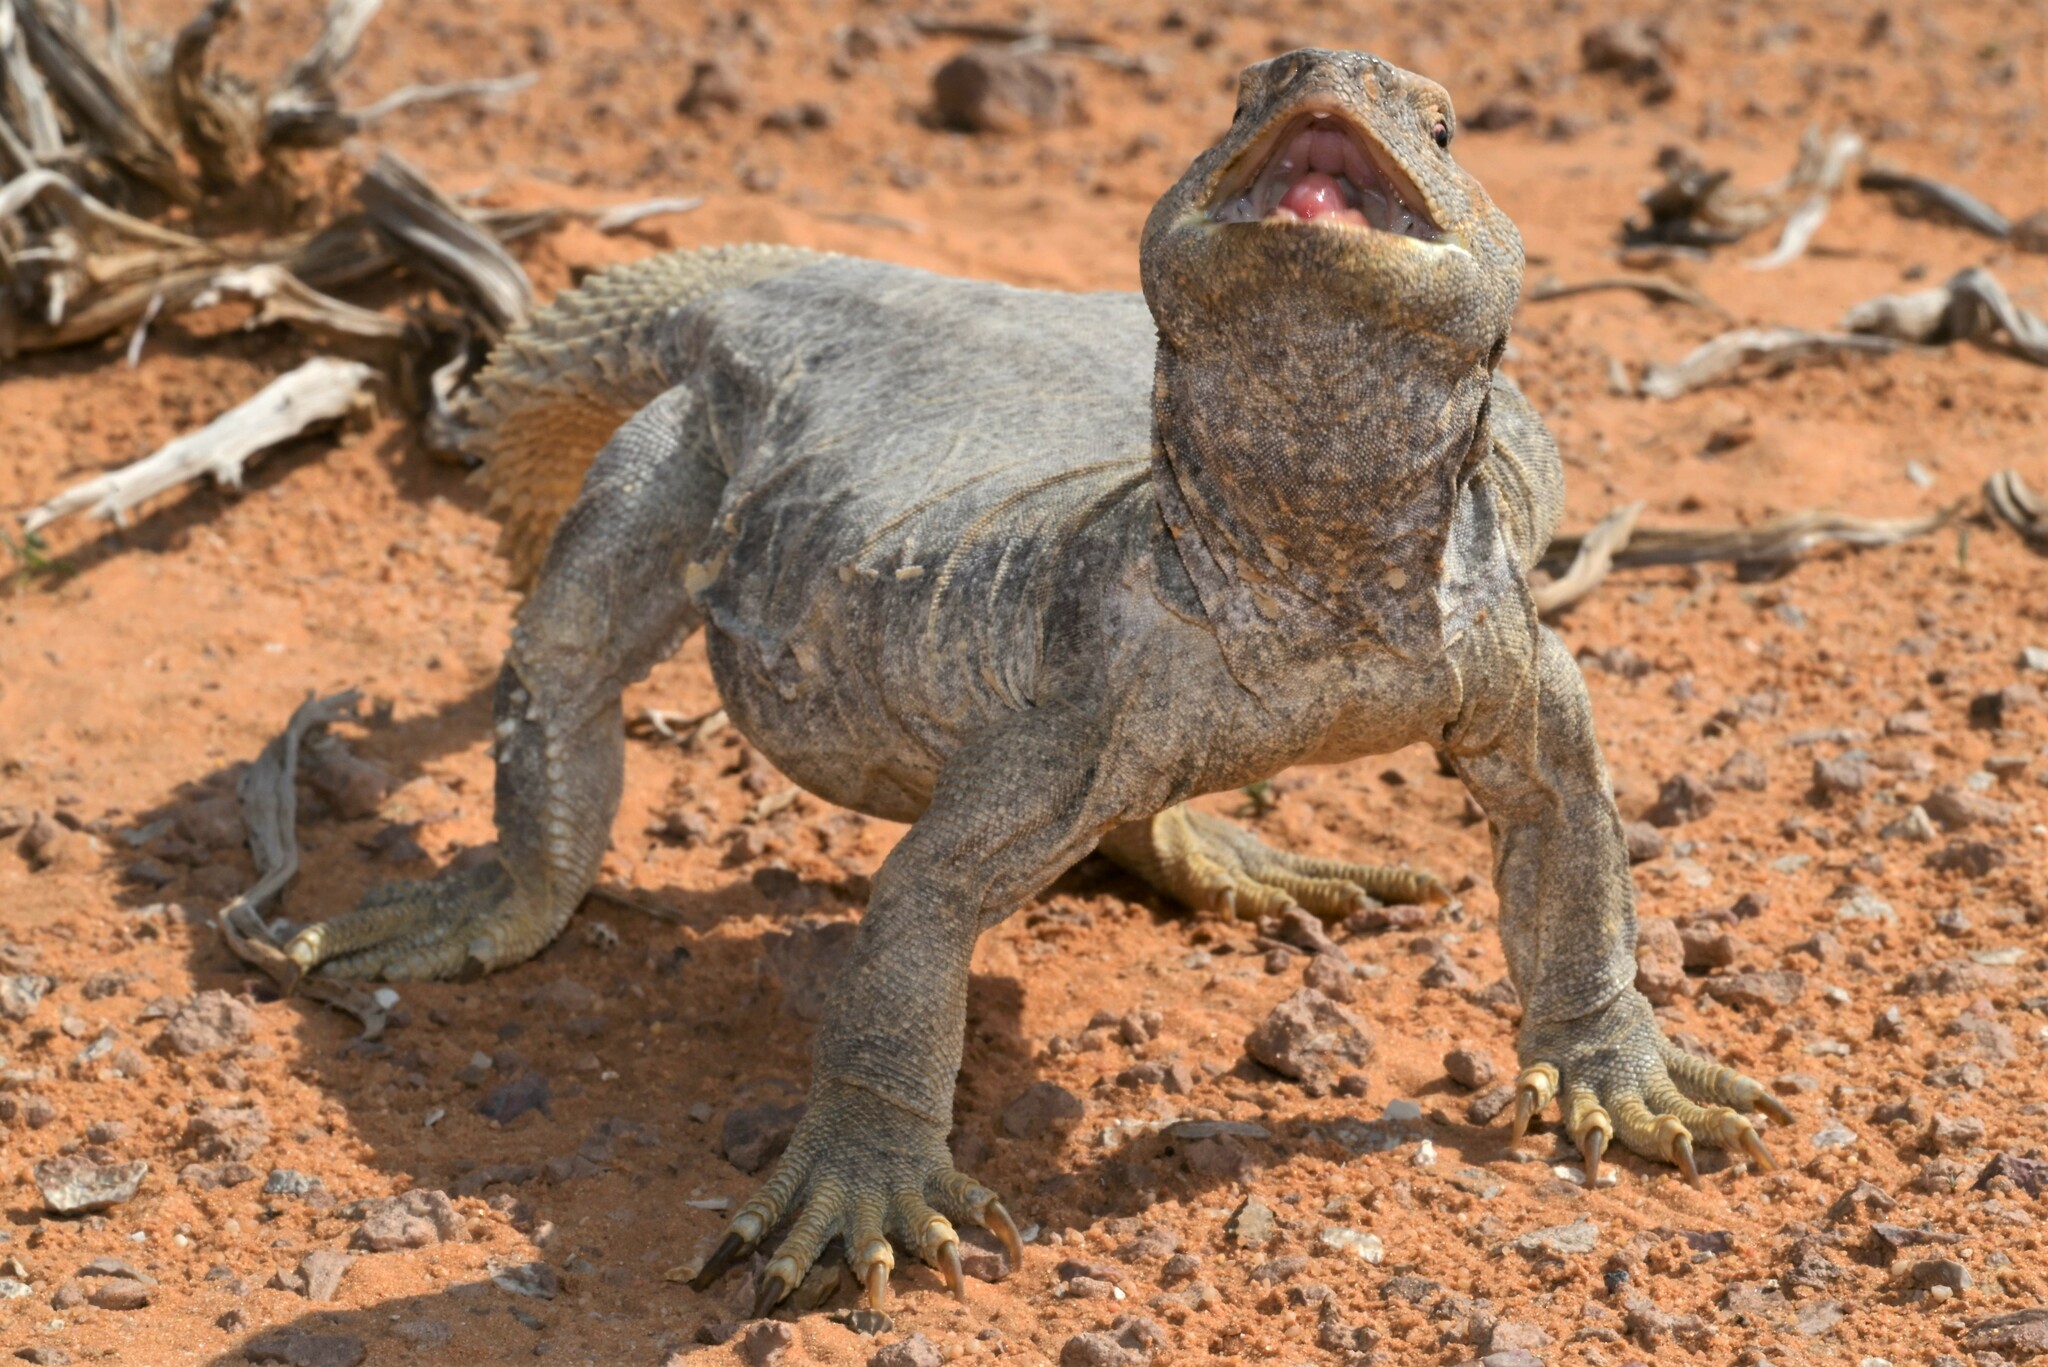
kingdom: Animalia
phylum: Chordata
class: Squamata
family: Agamidae
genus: Uromastyx
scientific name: Uromastyx aegyptia
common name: Egyptian mastigure
